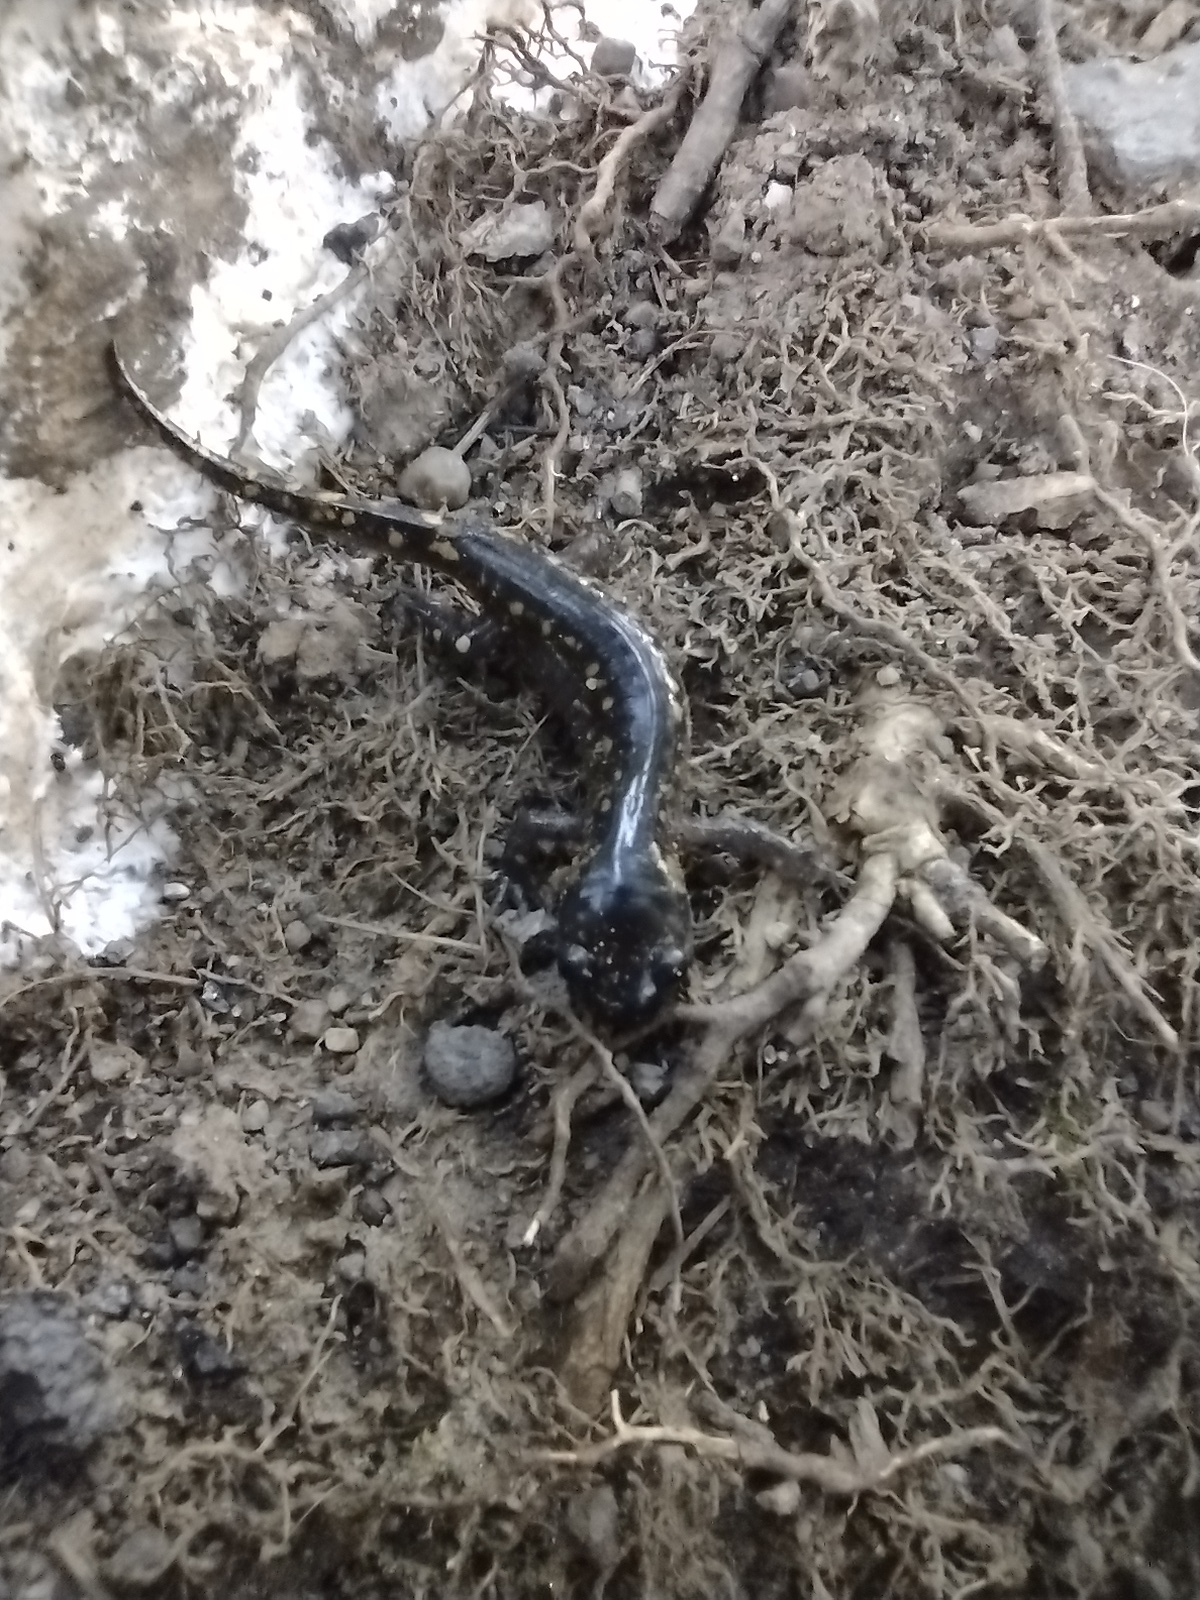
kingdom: Animalia
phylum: Chordata
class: Amphibia
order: Caudata
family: Ambystomatidae
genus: Ambystoma
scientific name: Ambystoma maculatum
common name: Spotted salamander
